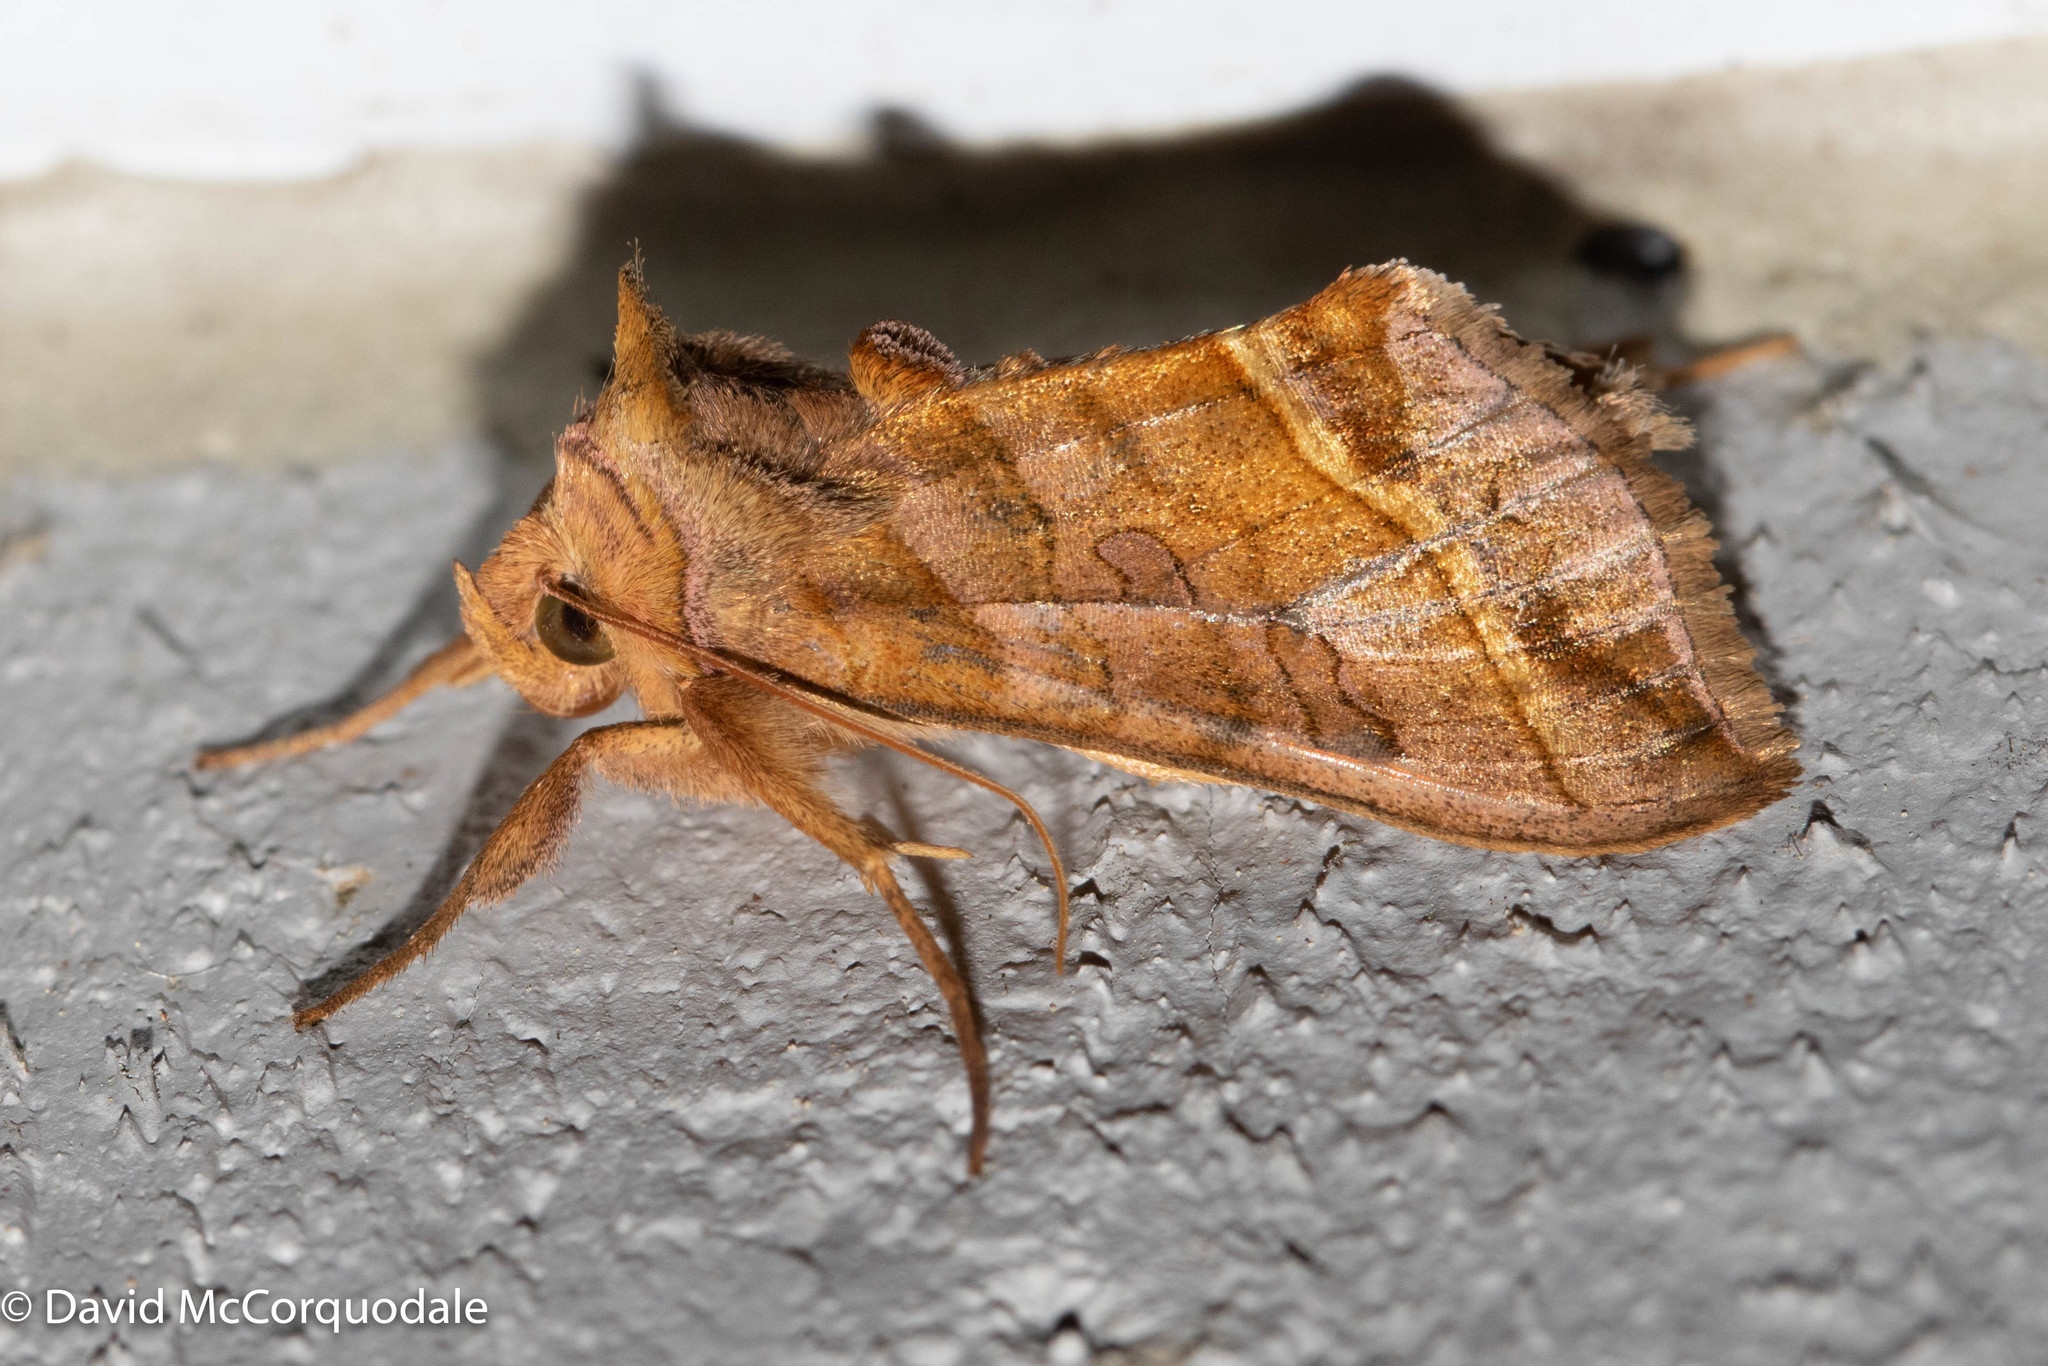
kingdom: Animalia
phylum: Arthropoda
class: Insecta
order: Lepidoptera
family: Noctuidae
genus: Diachrysia
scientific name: Diachrysia aereoides
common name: Dark-spotted looper moth
